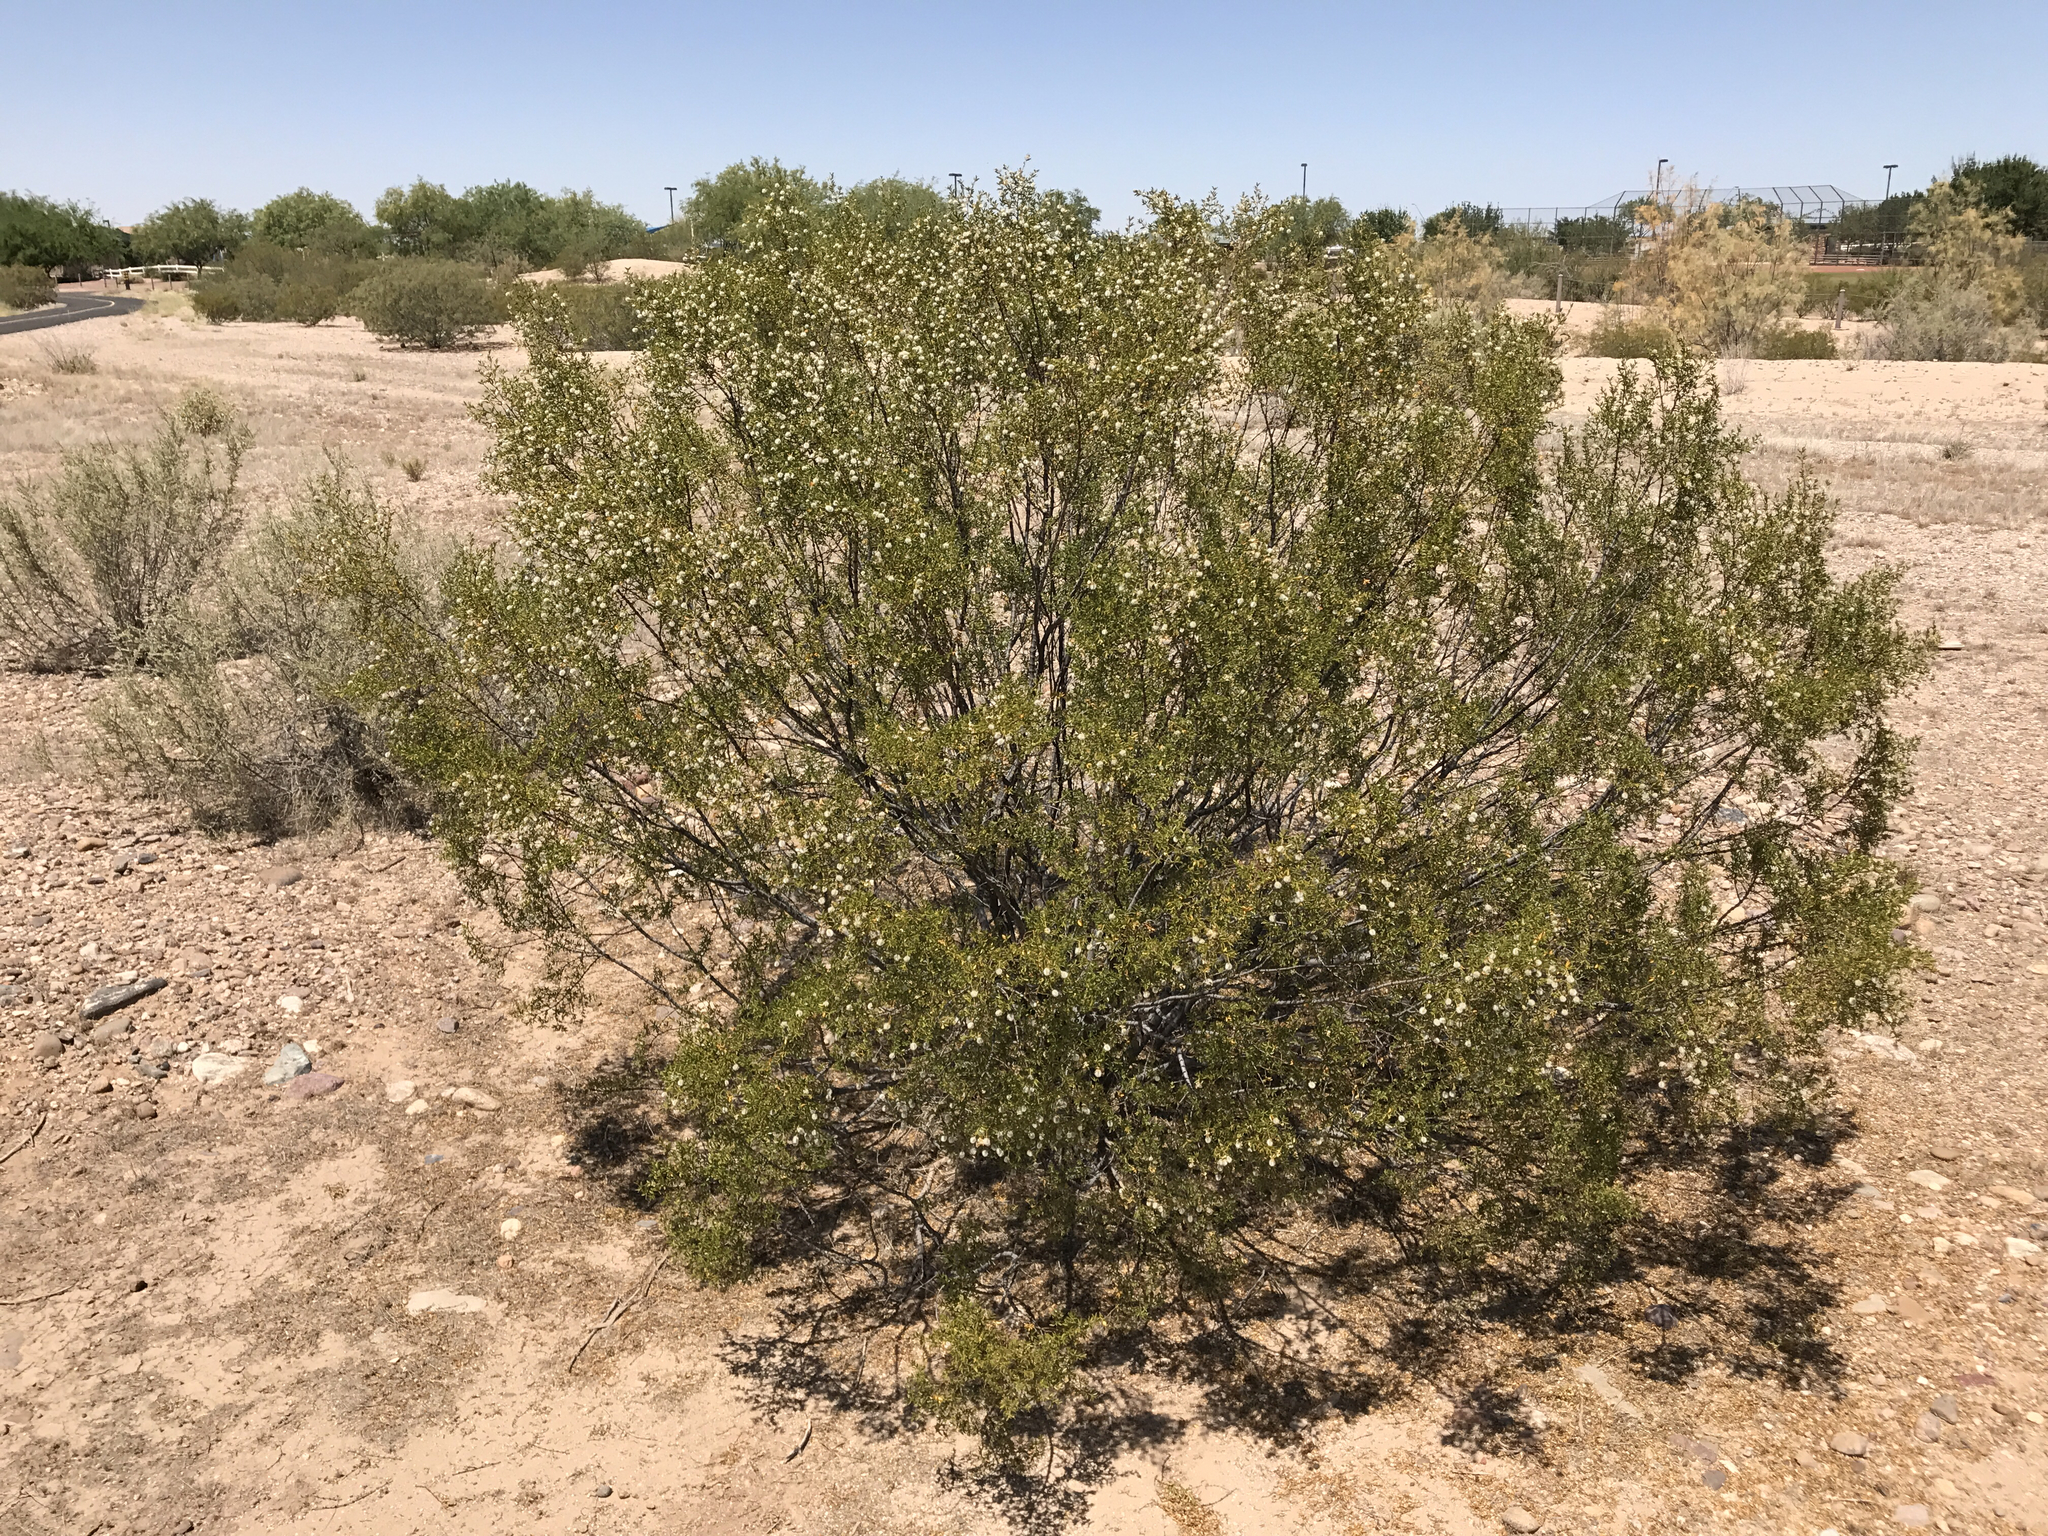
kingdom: Plantae
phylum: Tracheophyta
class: Magnoliopsida
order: Zygophyllales
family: Zygophyllaceae
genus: Larrea
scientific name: Larrea tridentata
